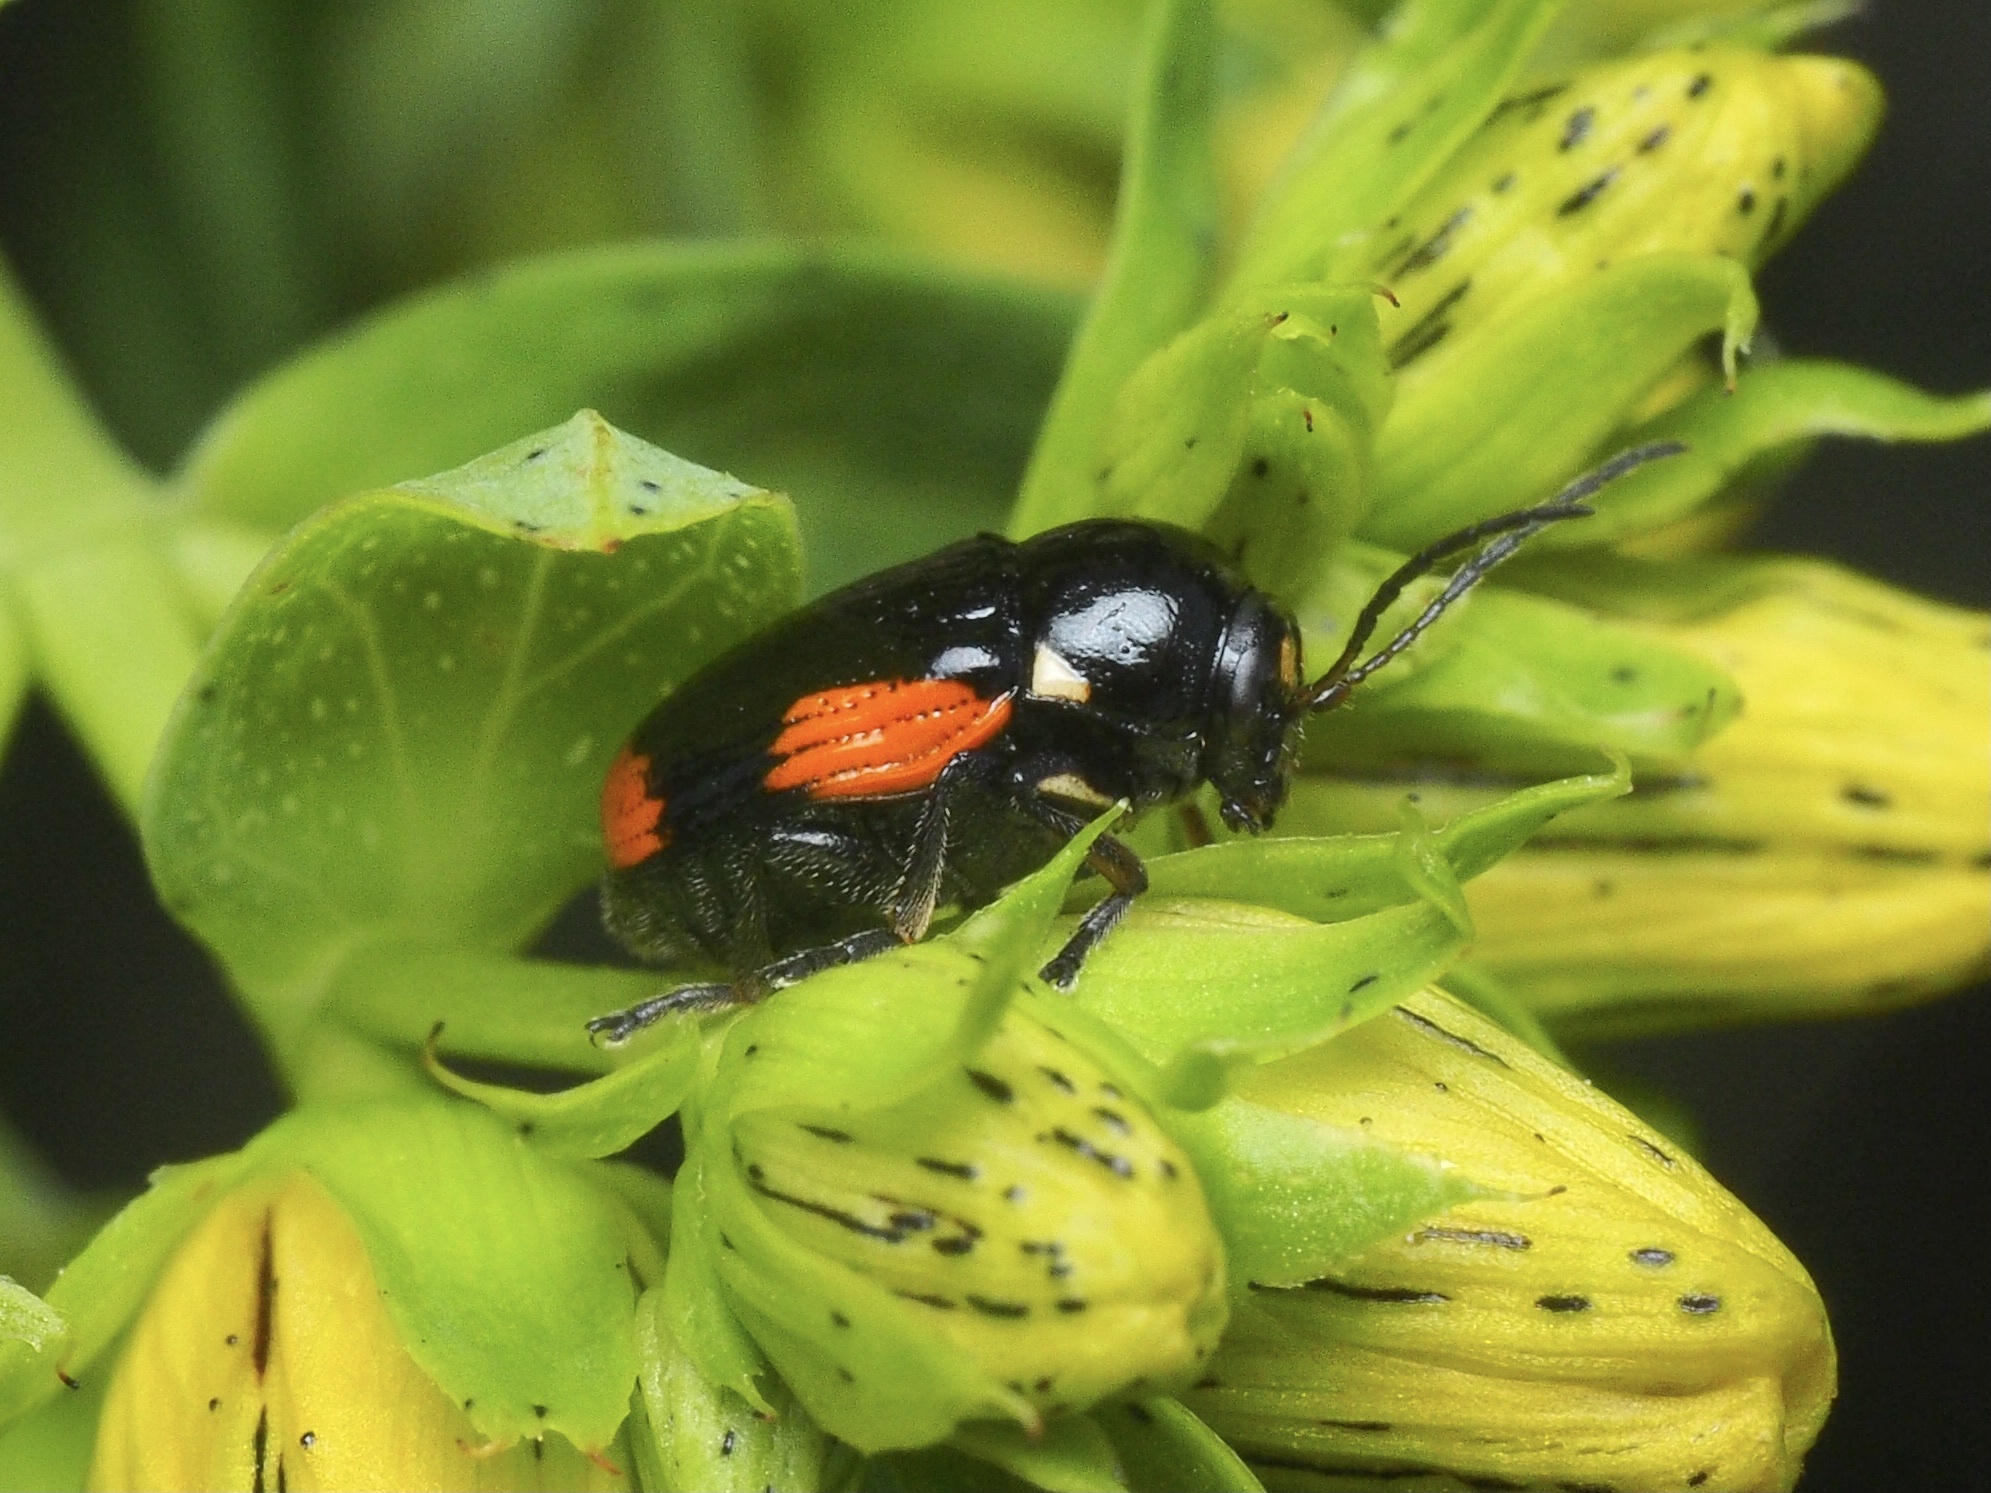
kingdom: Animalia
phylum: Arthropoda
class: Insecta
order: Coleoptera
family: Chrysomelidae
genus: Cryptocephalus
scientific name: Cryptocephalus moraei
